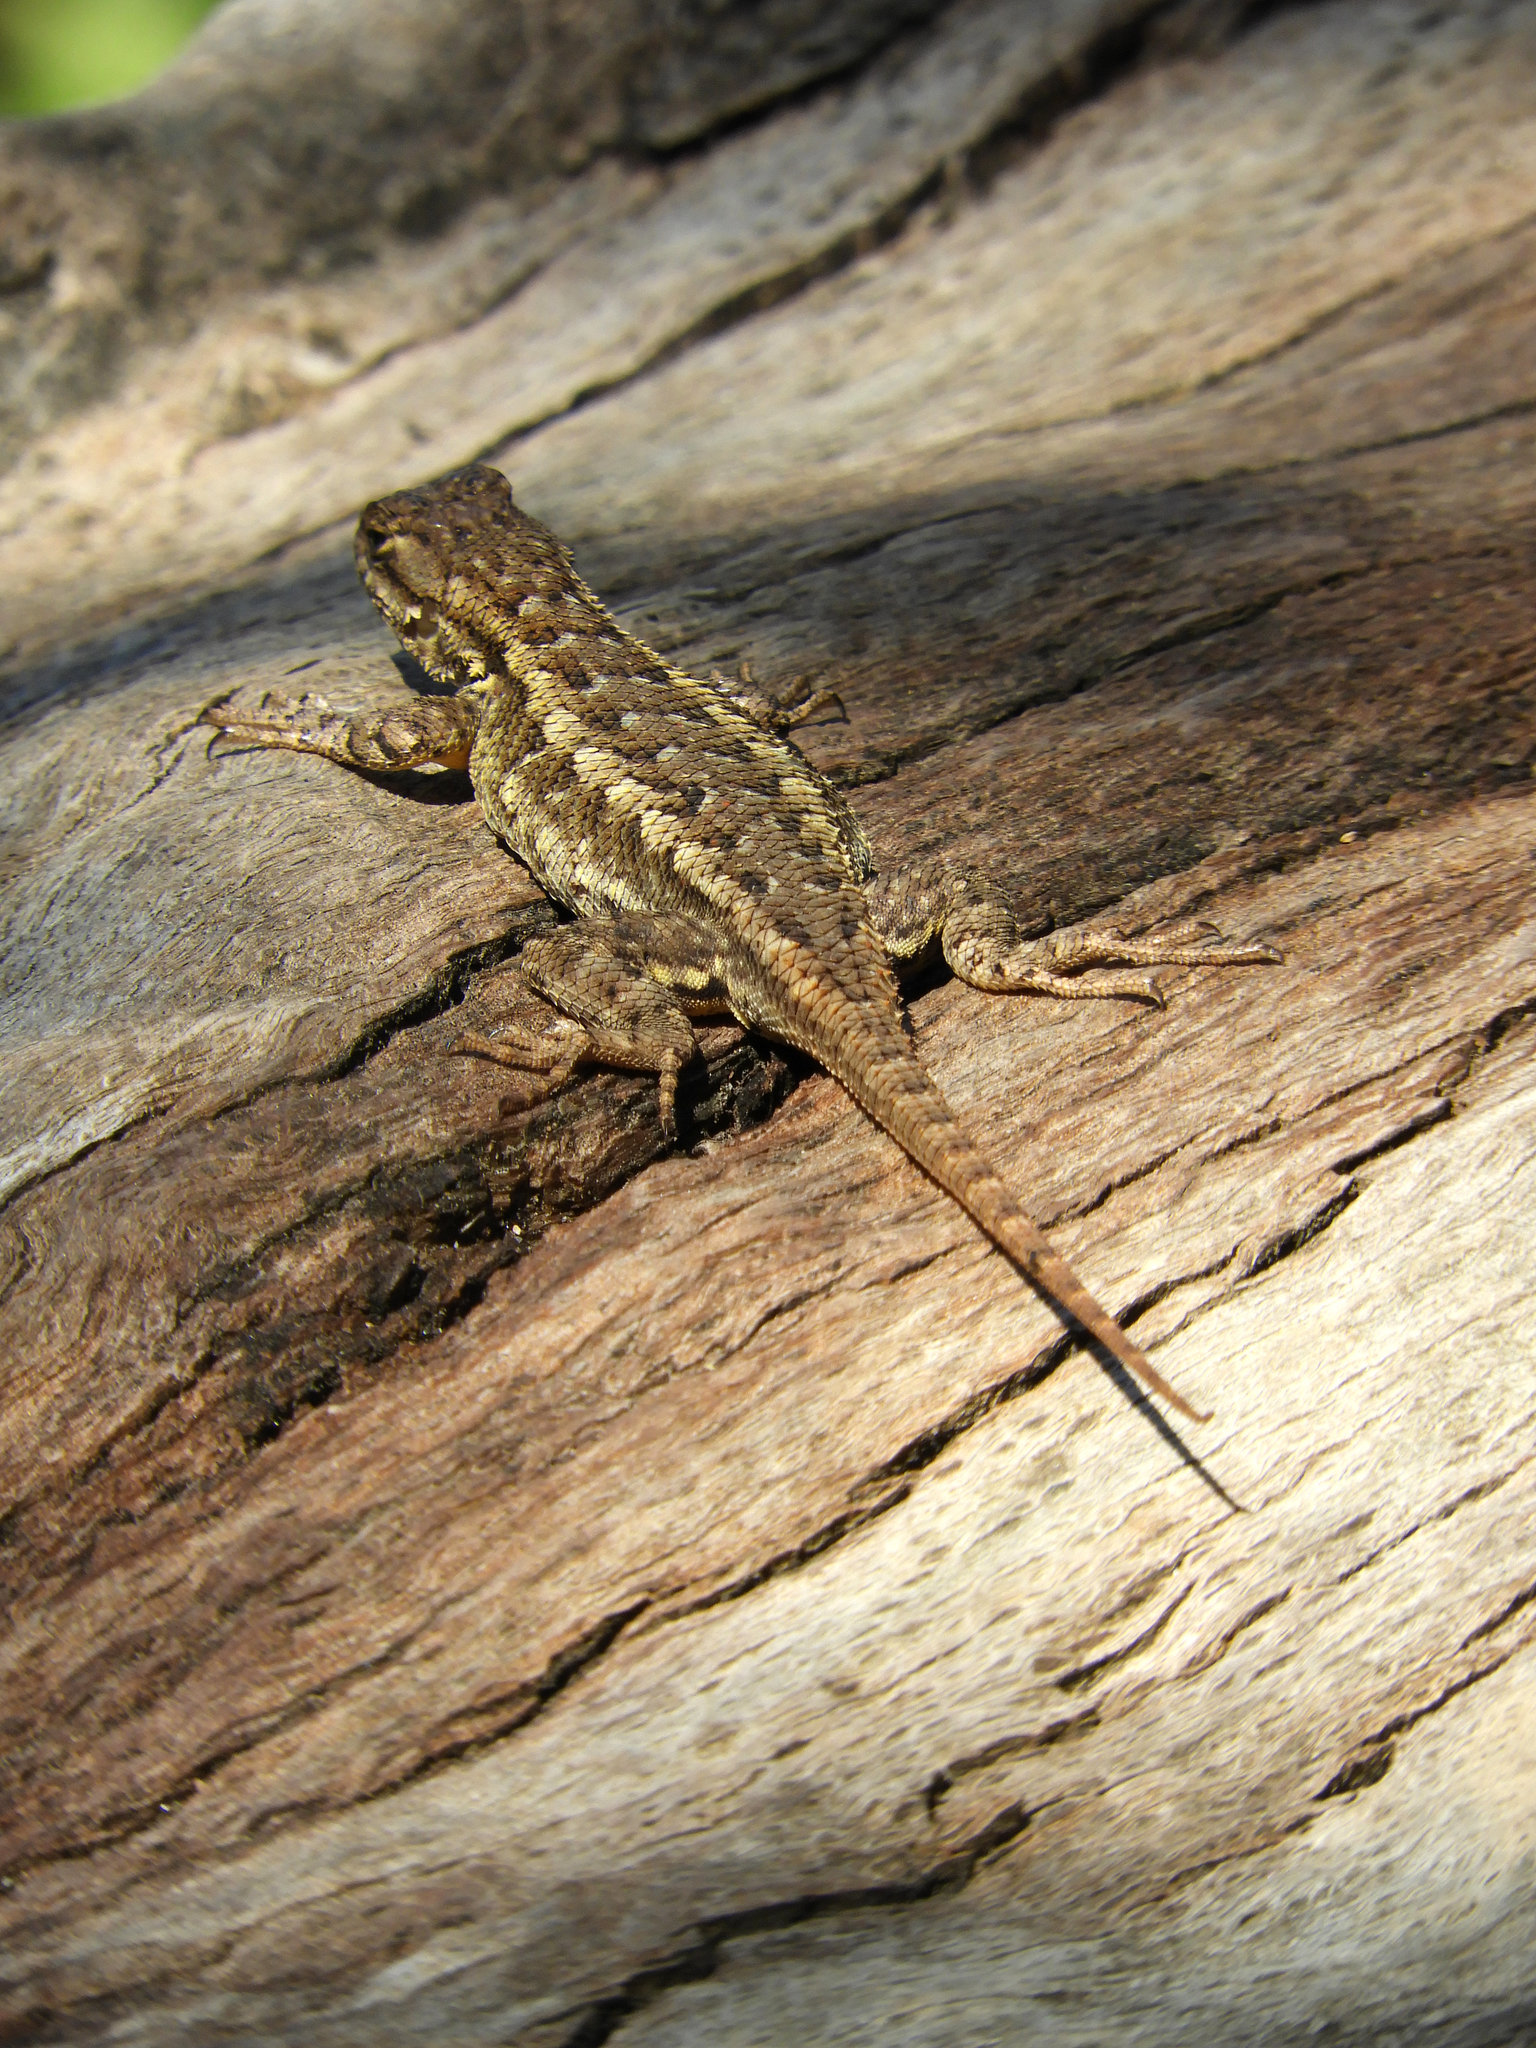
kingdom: Animalia
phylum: Chordata
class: Squamata
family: Phrynosomatidae
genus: Sceloporus
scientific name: Sceloporus occidentalis
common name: Western fence lizard
